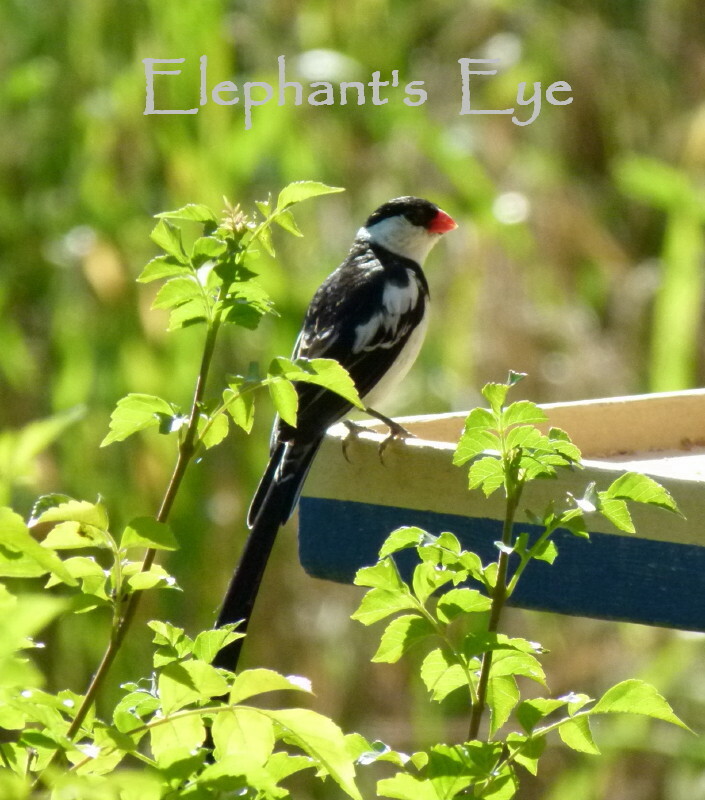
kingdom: Animalia
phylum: Chordata
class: Aves
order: Passeriformes
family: Viduidae
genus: Vidua
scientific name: Vidua macroura
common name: Pin-tailed whydah
